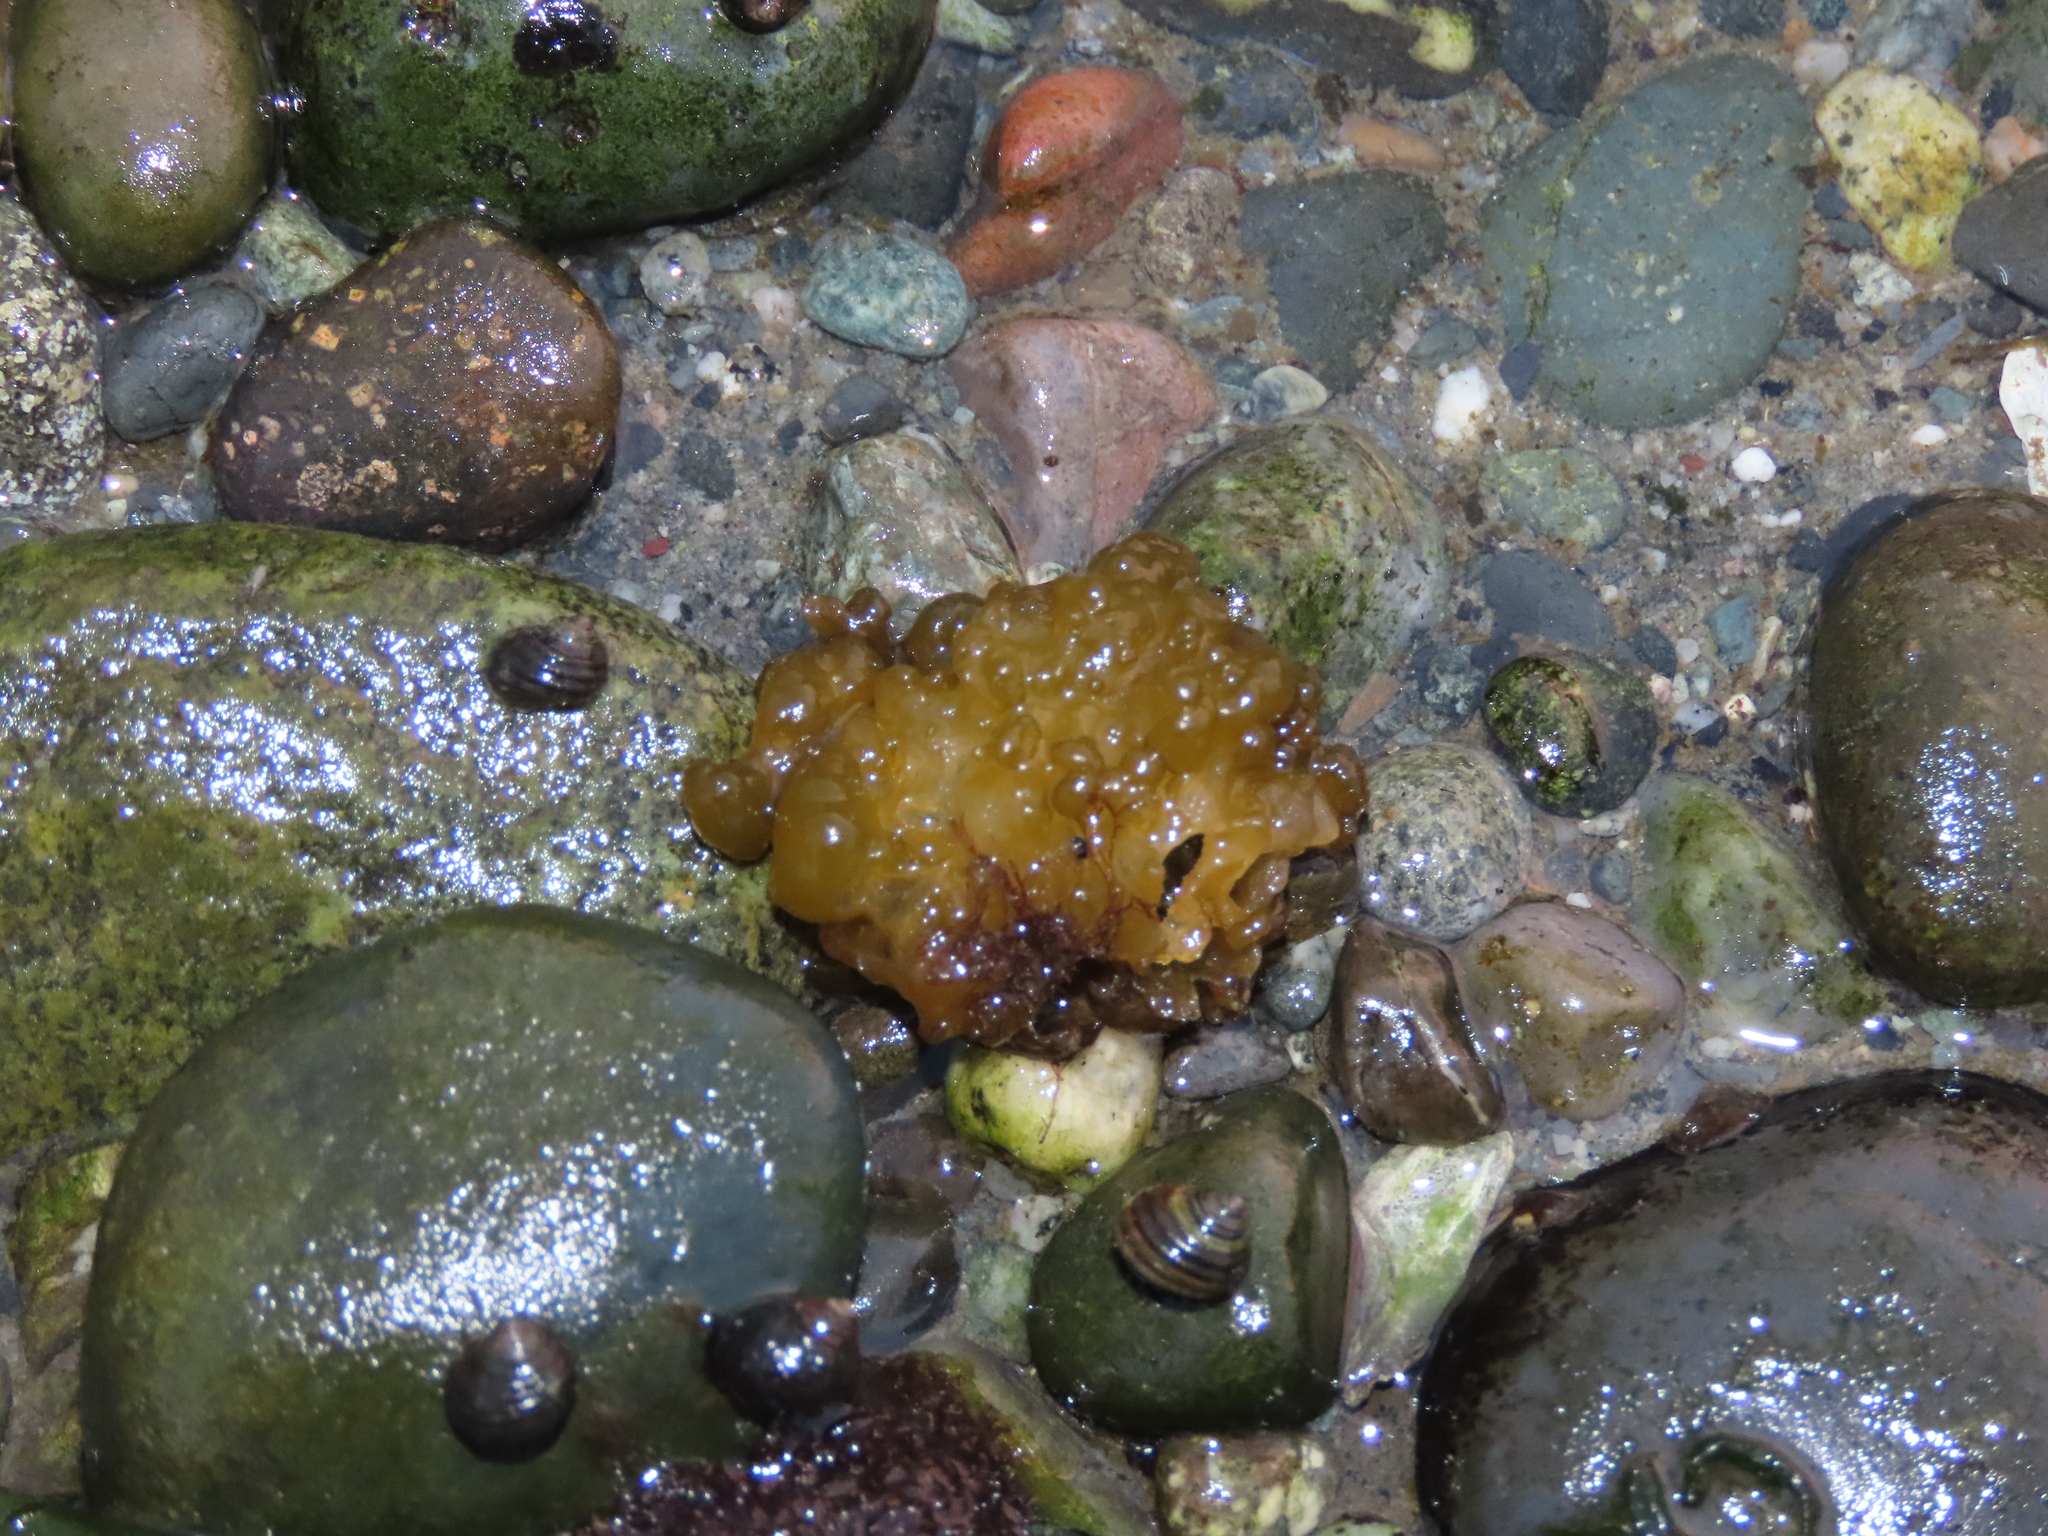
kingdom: Chromista
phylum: Ochrophyta
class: Phaeophyceae
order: Ectocarpales
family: Chordariaceae
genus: Leathesia
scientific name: Leathesia marina
